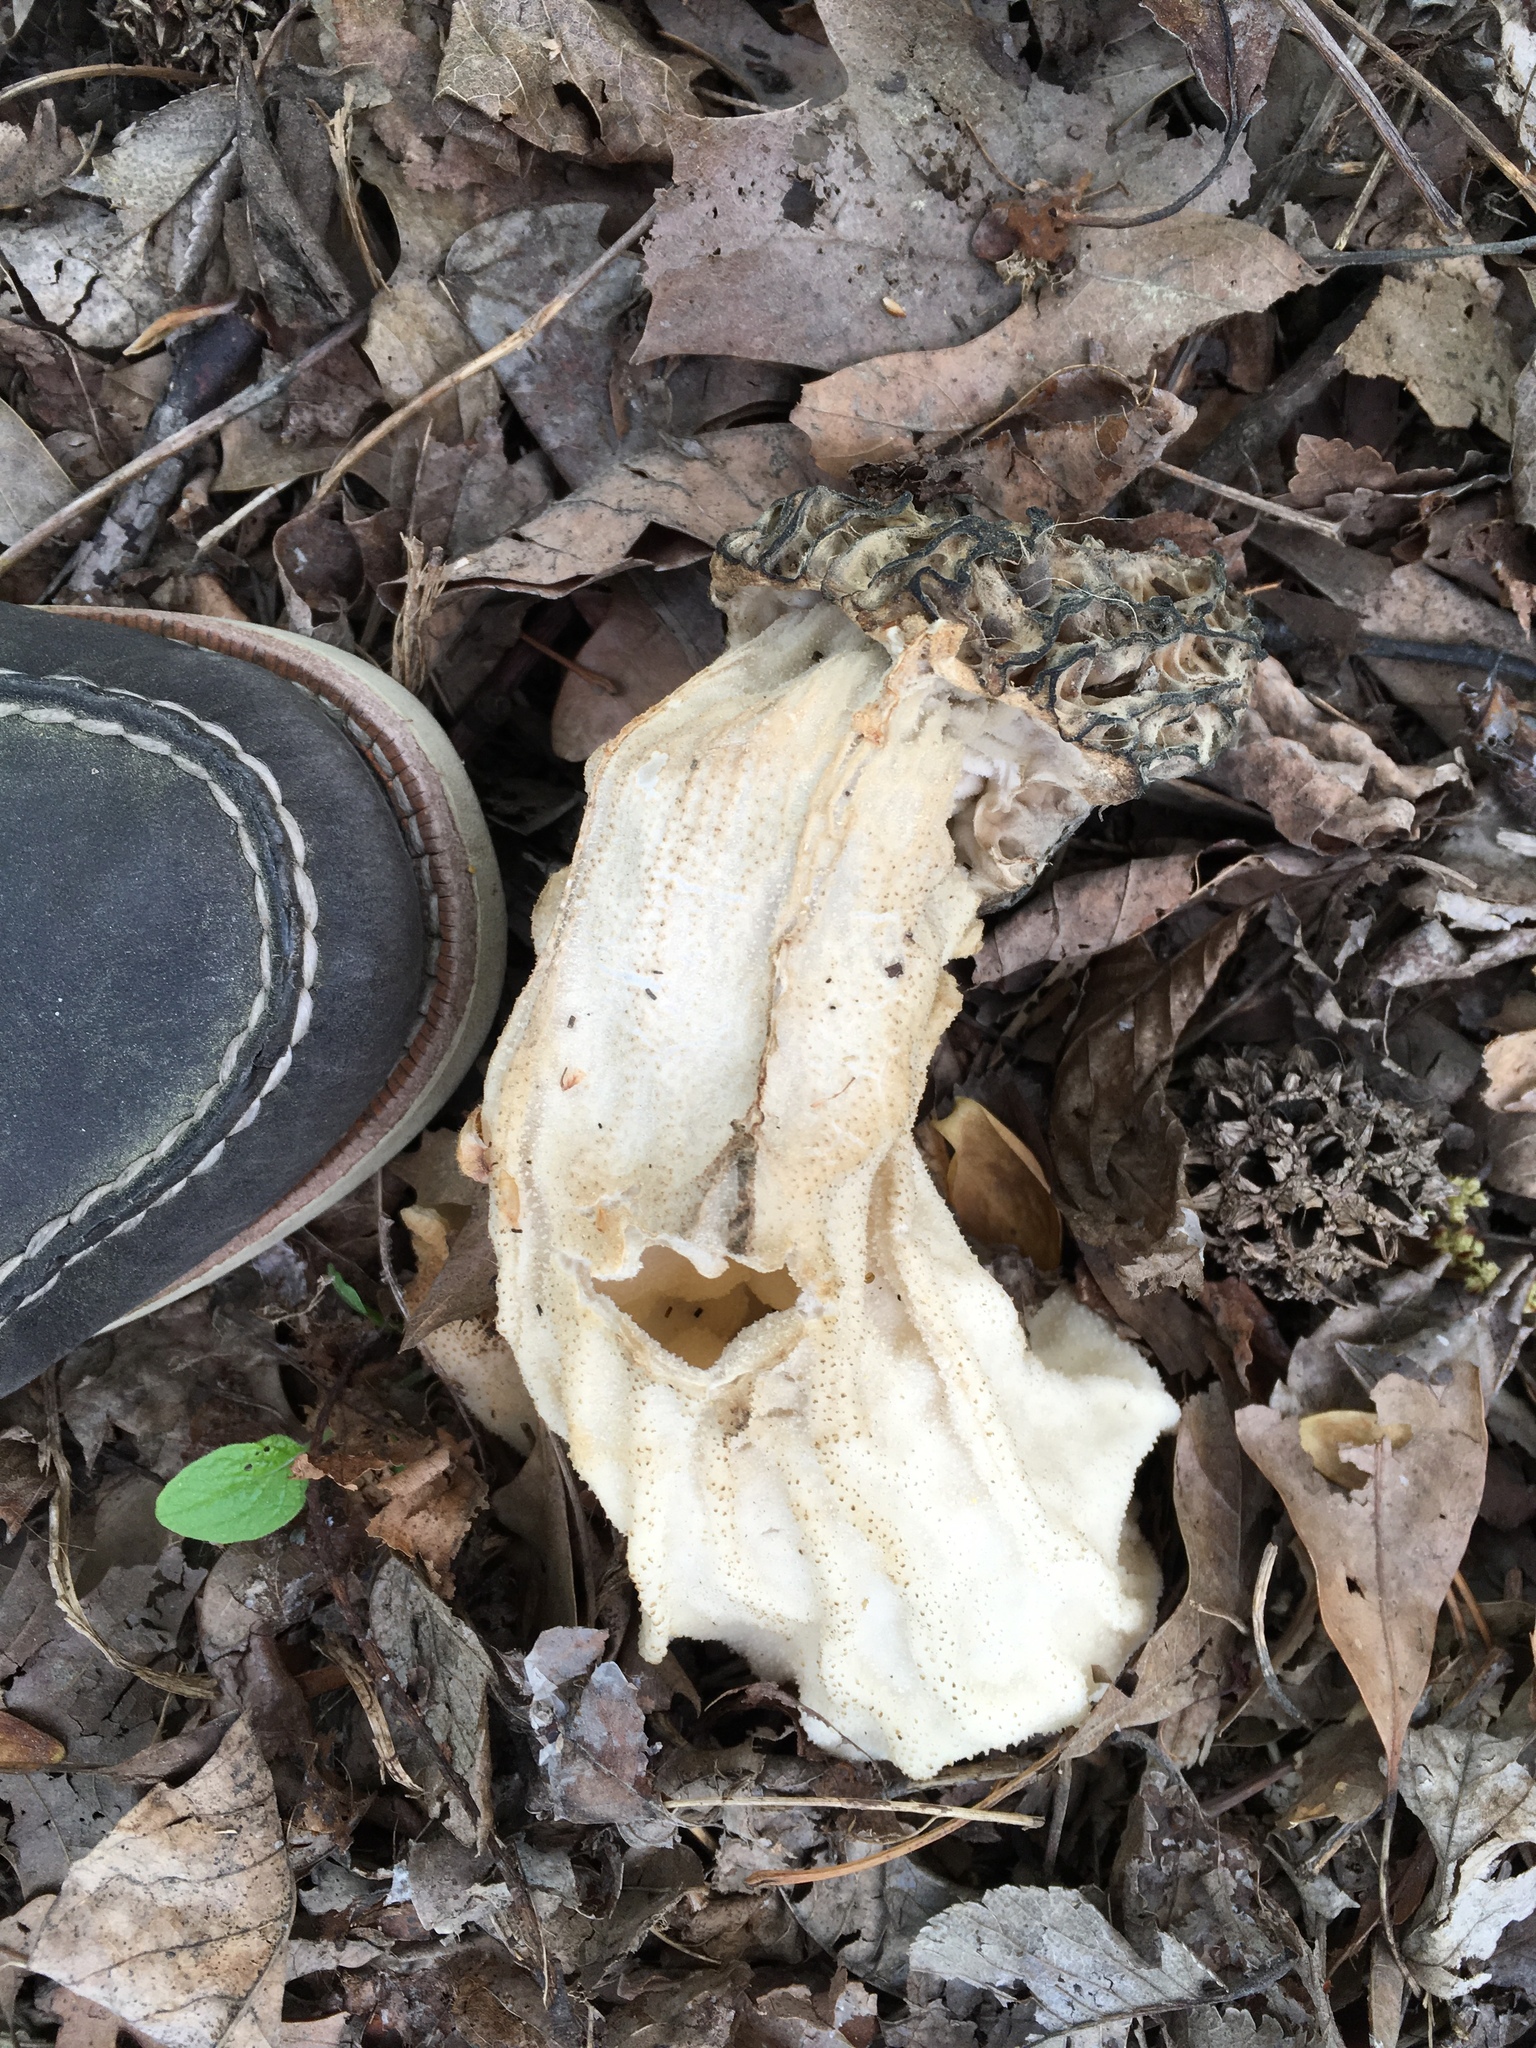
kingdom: Fungi
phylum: Ascomycota
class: Pezizomycetes
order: Pezizales
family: Morchellaceae
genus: Morchella
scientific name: Morchella angusticeps
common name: Black morel
